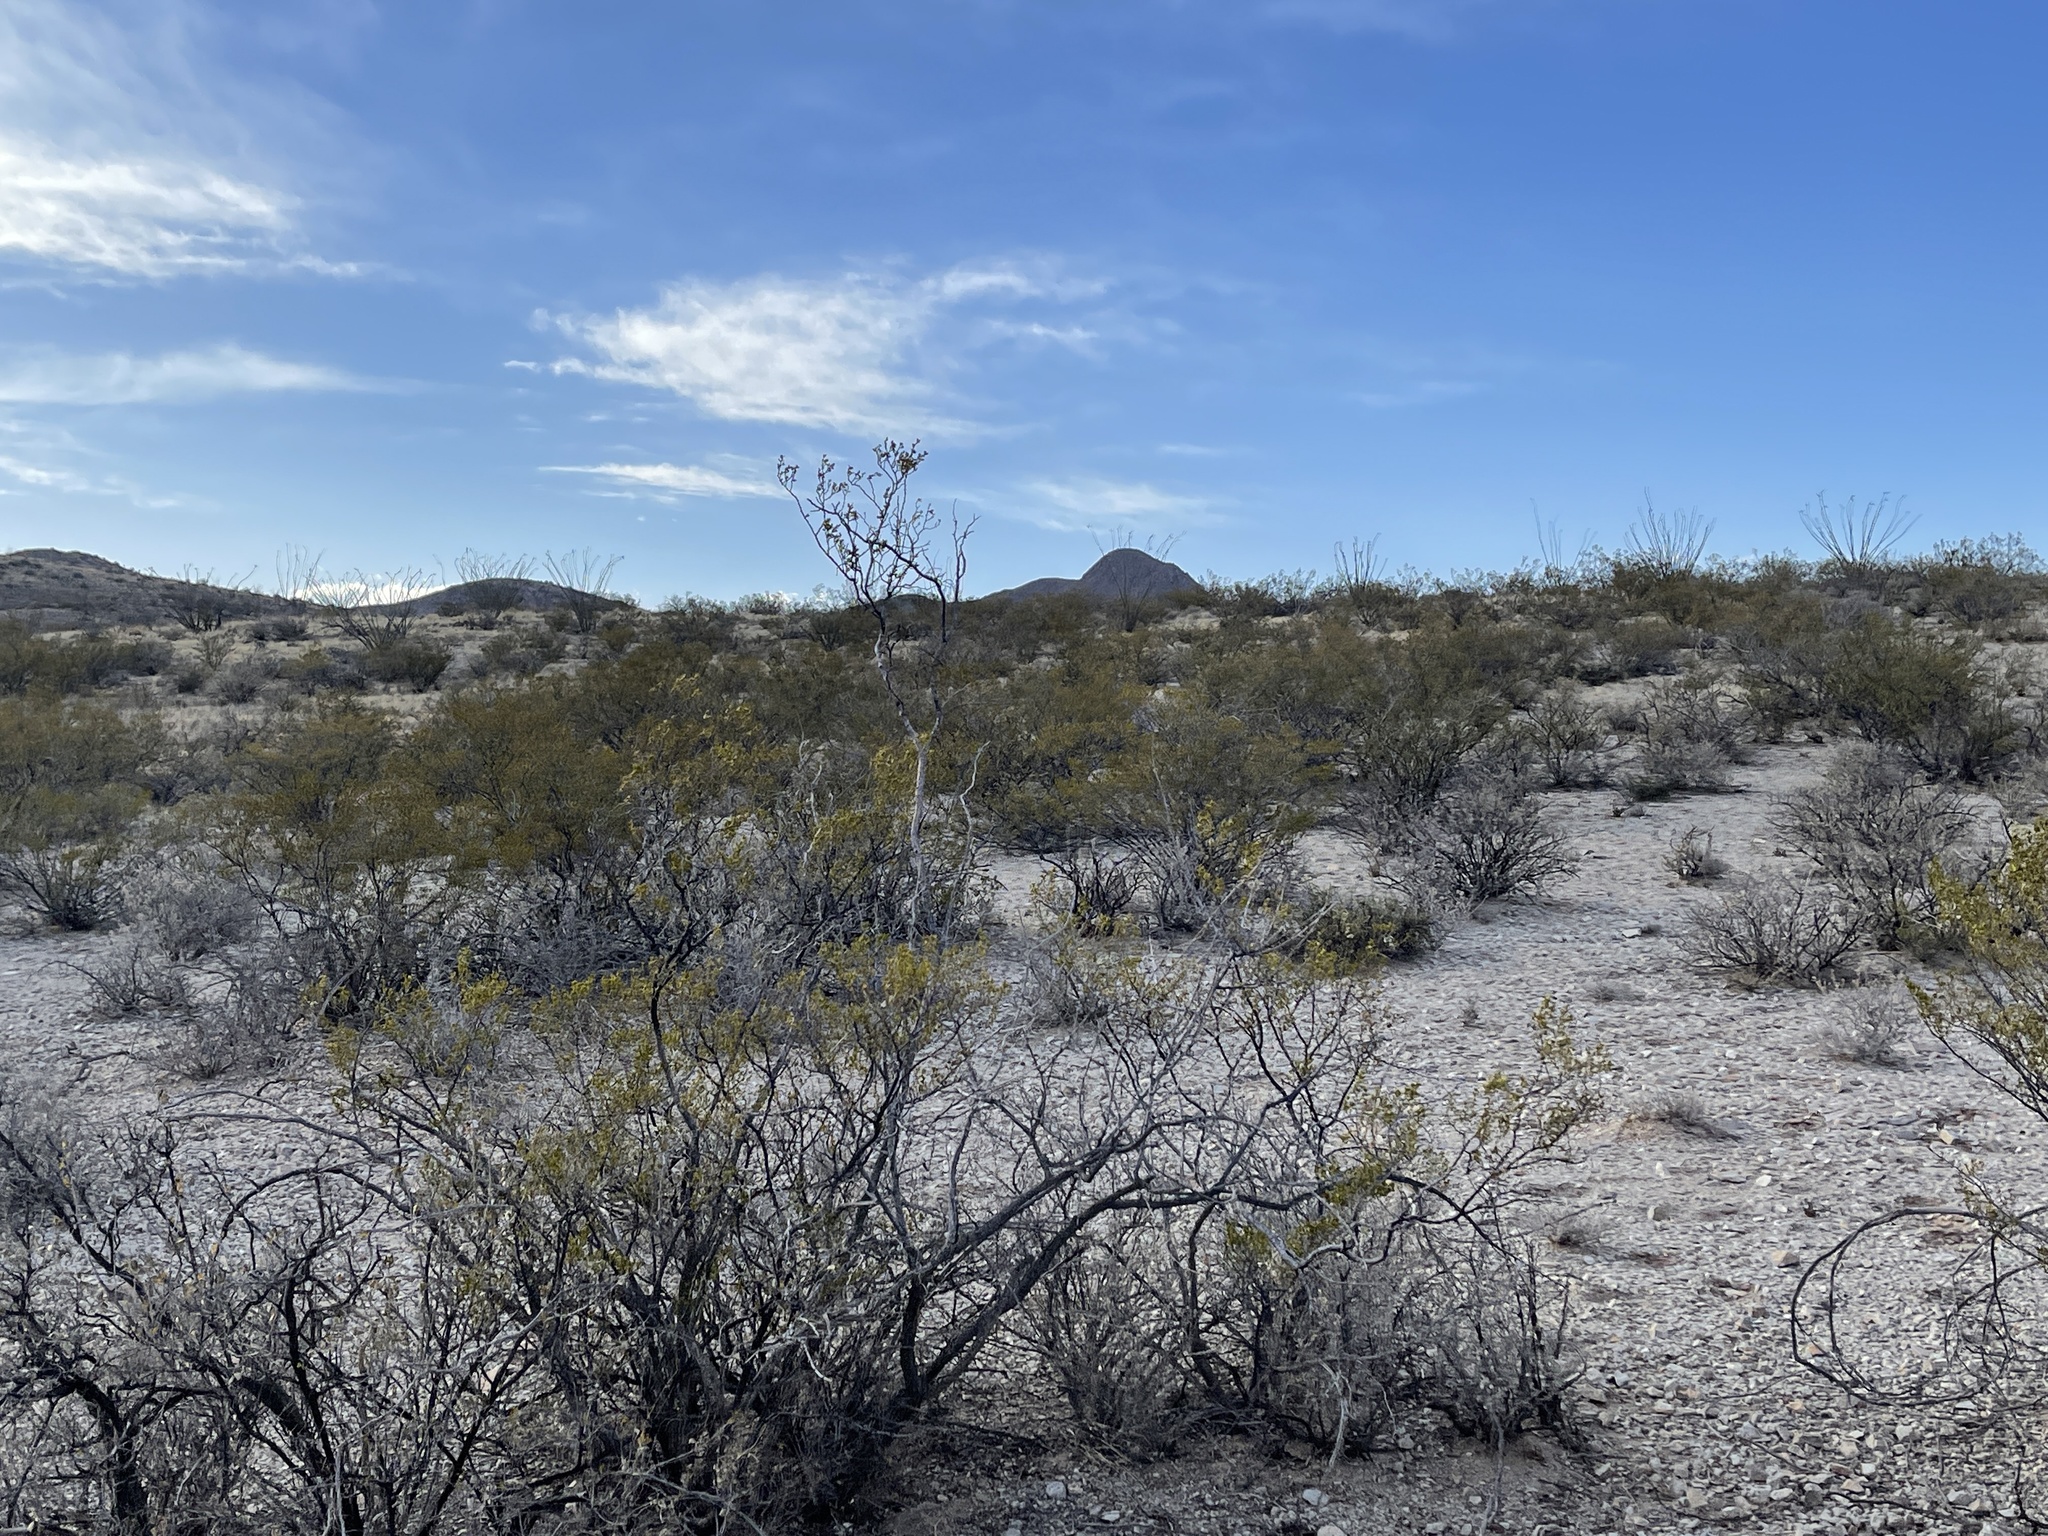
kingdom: Plantae
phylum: Tracheophyta
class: Magnoliopsida
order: Zygophyllales
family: Zygophyllaceae
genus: Larrea
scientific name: Larrea tridentata
